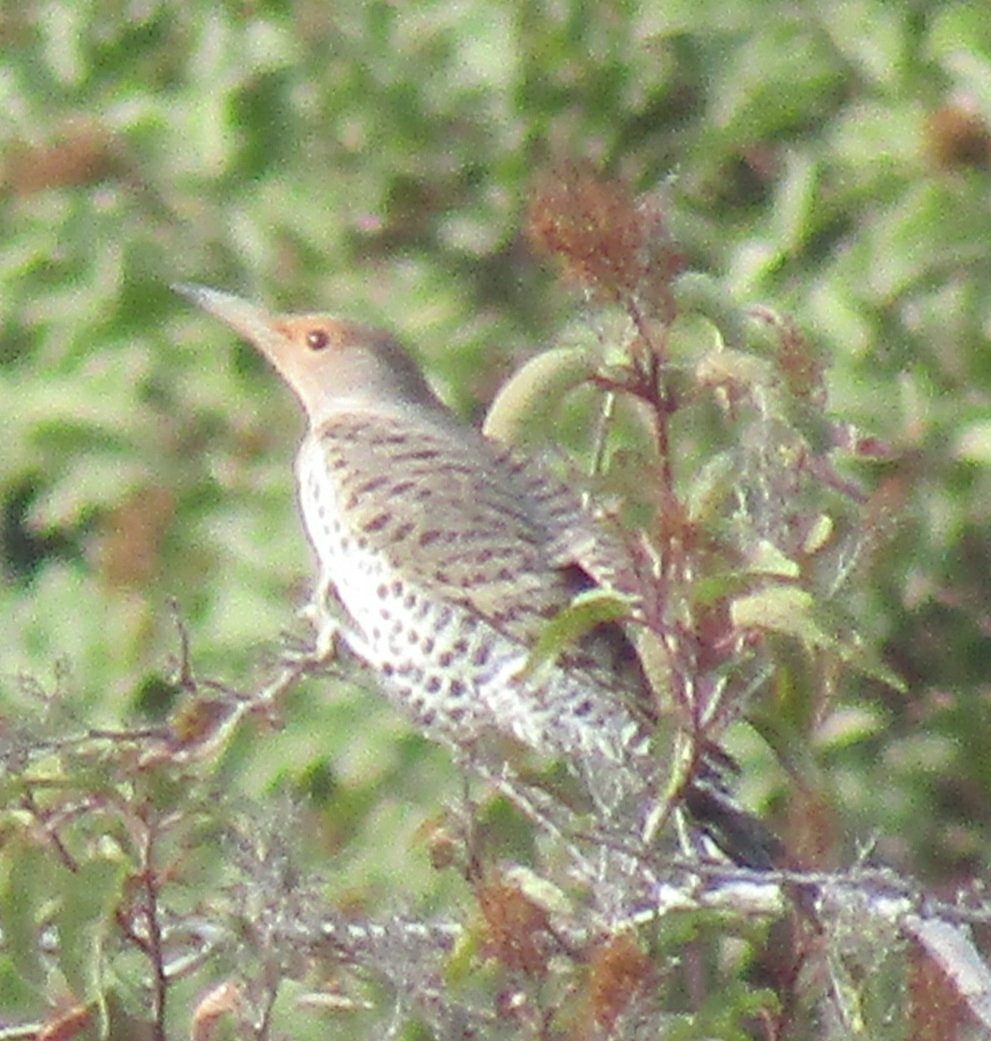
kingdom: Animalia
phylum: Chordata
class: Aves
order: Piciformes
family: Picidae
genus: Colaptes
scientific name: Colaptes auratus
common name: Northern flicker
